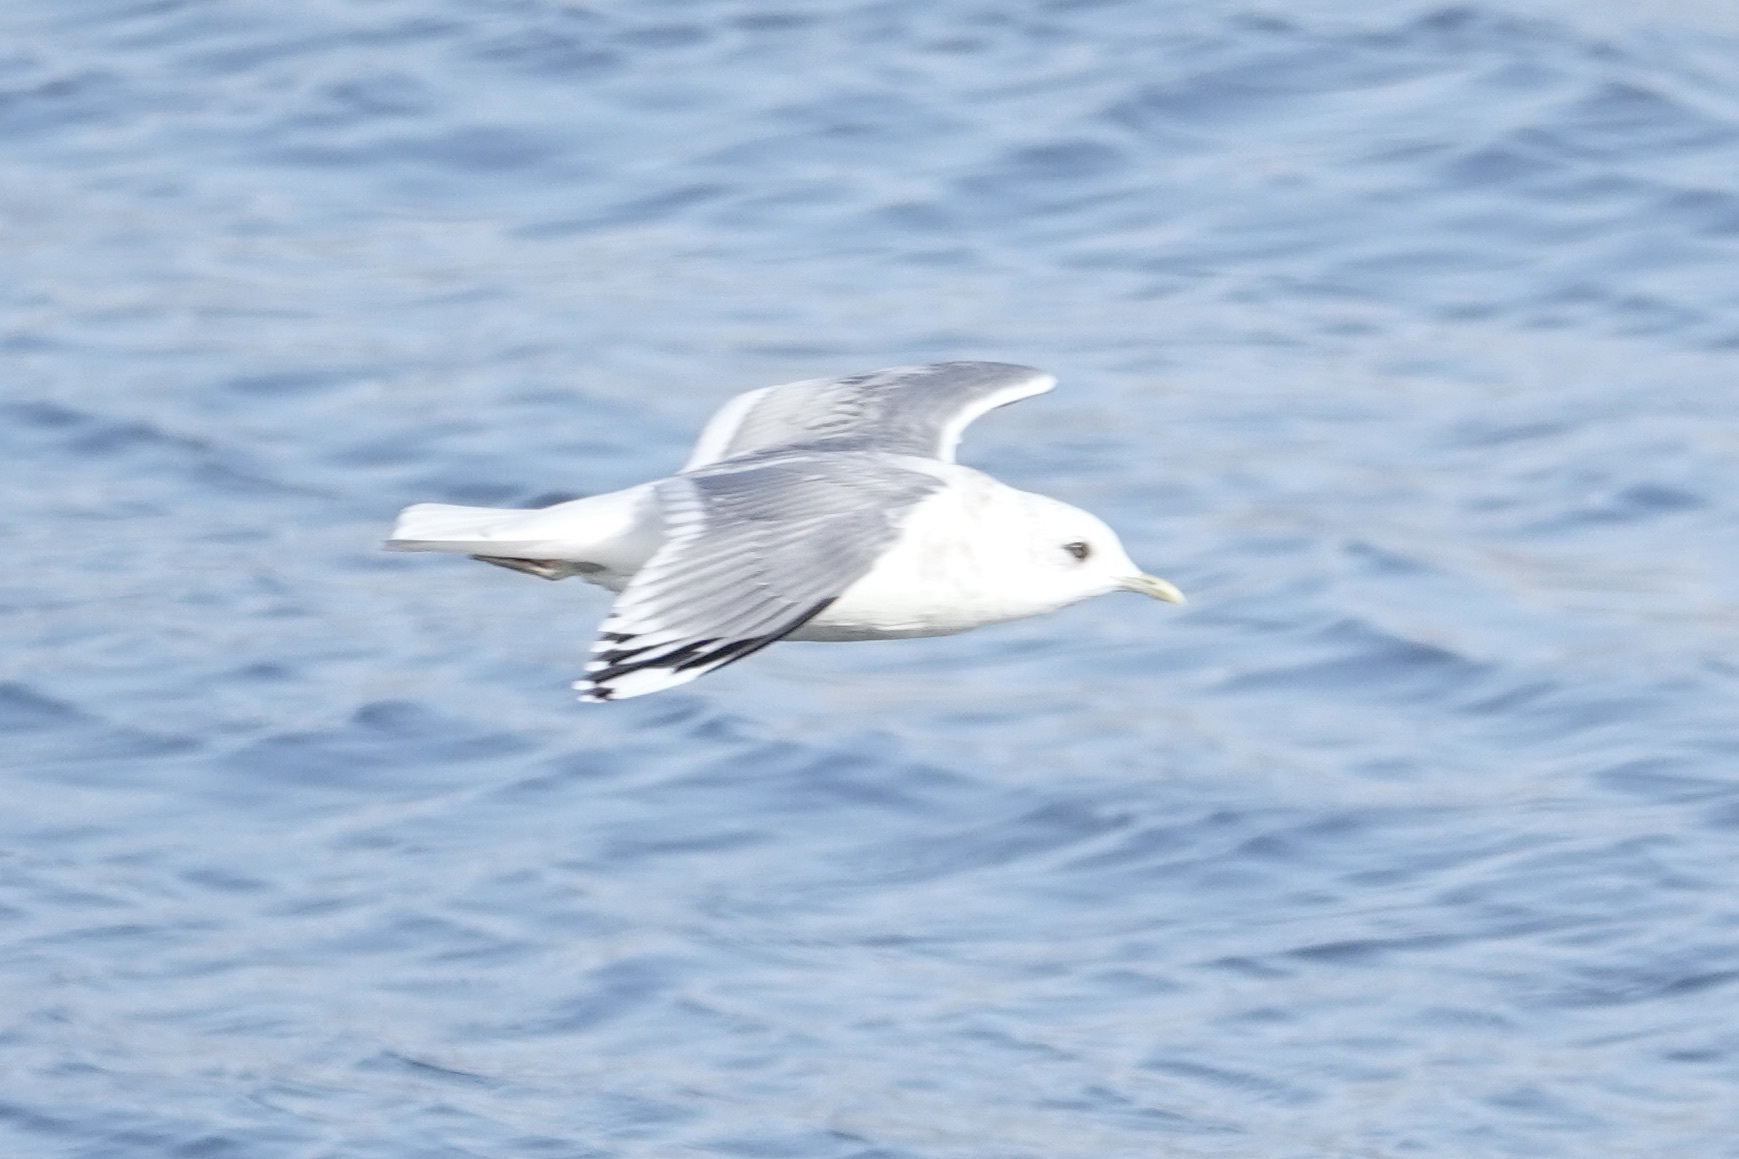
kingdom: Animalia
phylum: Chordata
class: Aves
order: Charadriiformes
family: Laridae
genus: Larus
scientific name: Larus brachyrhynchus
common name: Short-billed gull
